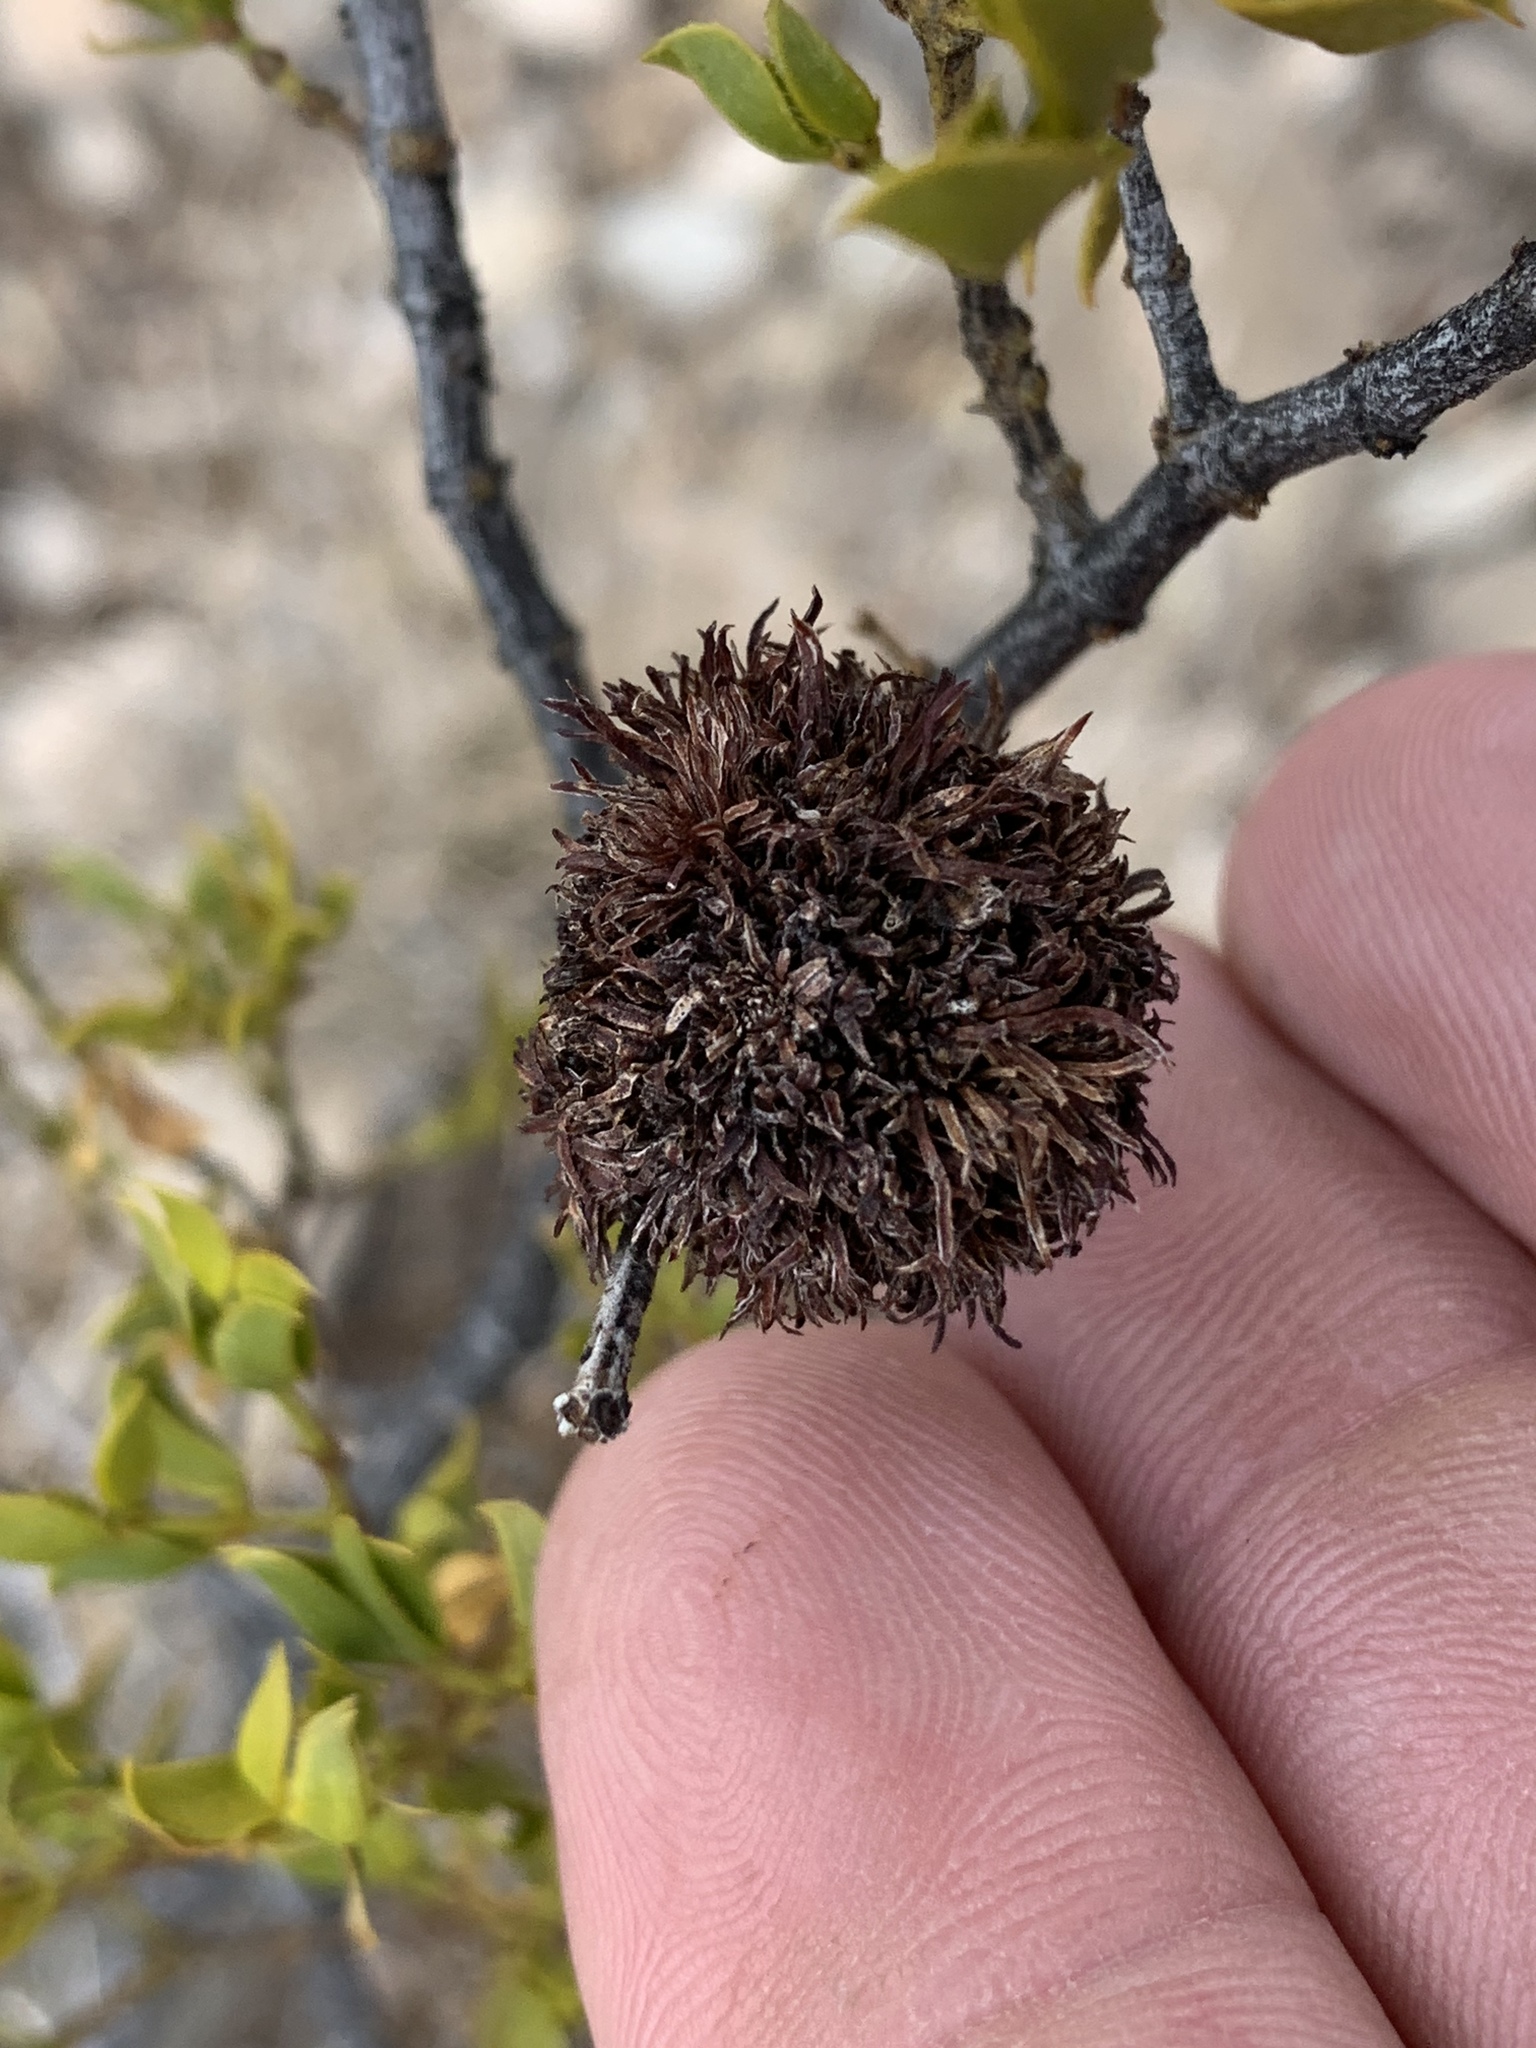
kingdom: Animalia
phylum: Arthropoda
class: Insecta
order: Diptera
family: Cecidomyiidae
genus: Asphondylia
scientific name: Asphondylia auripila
